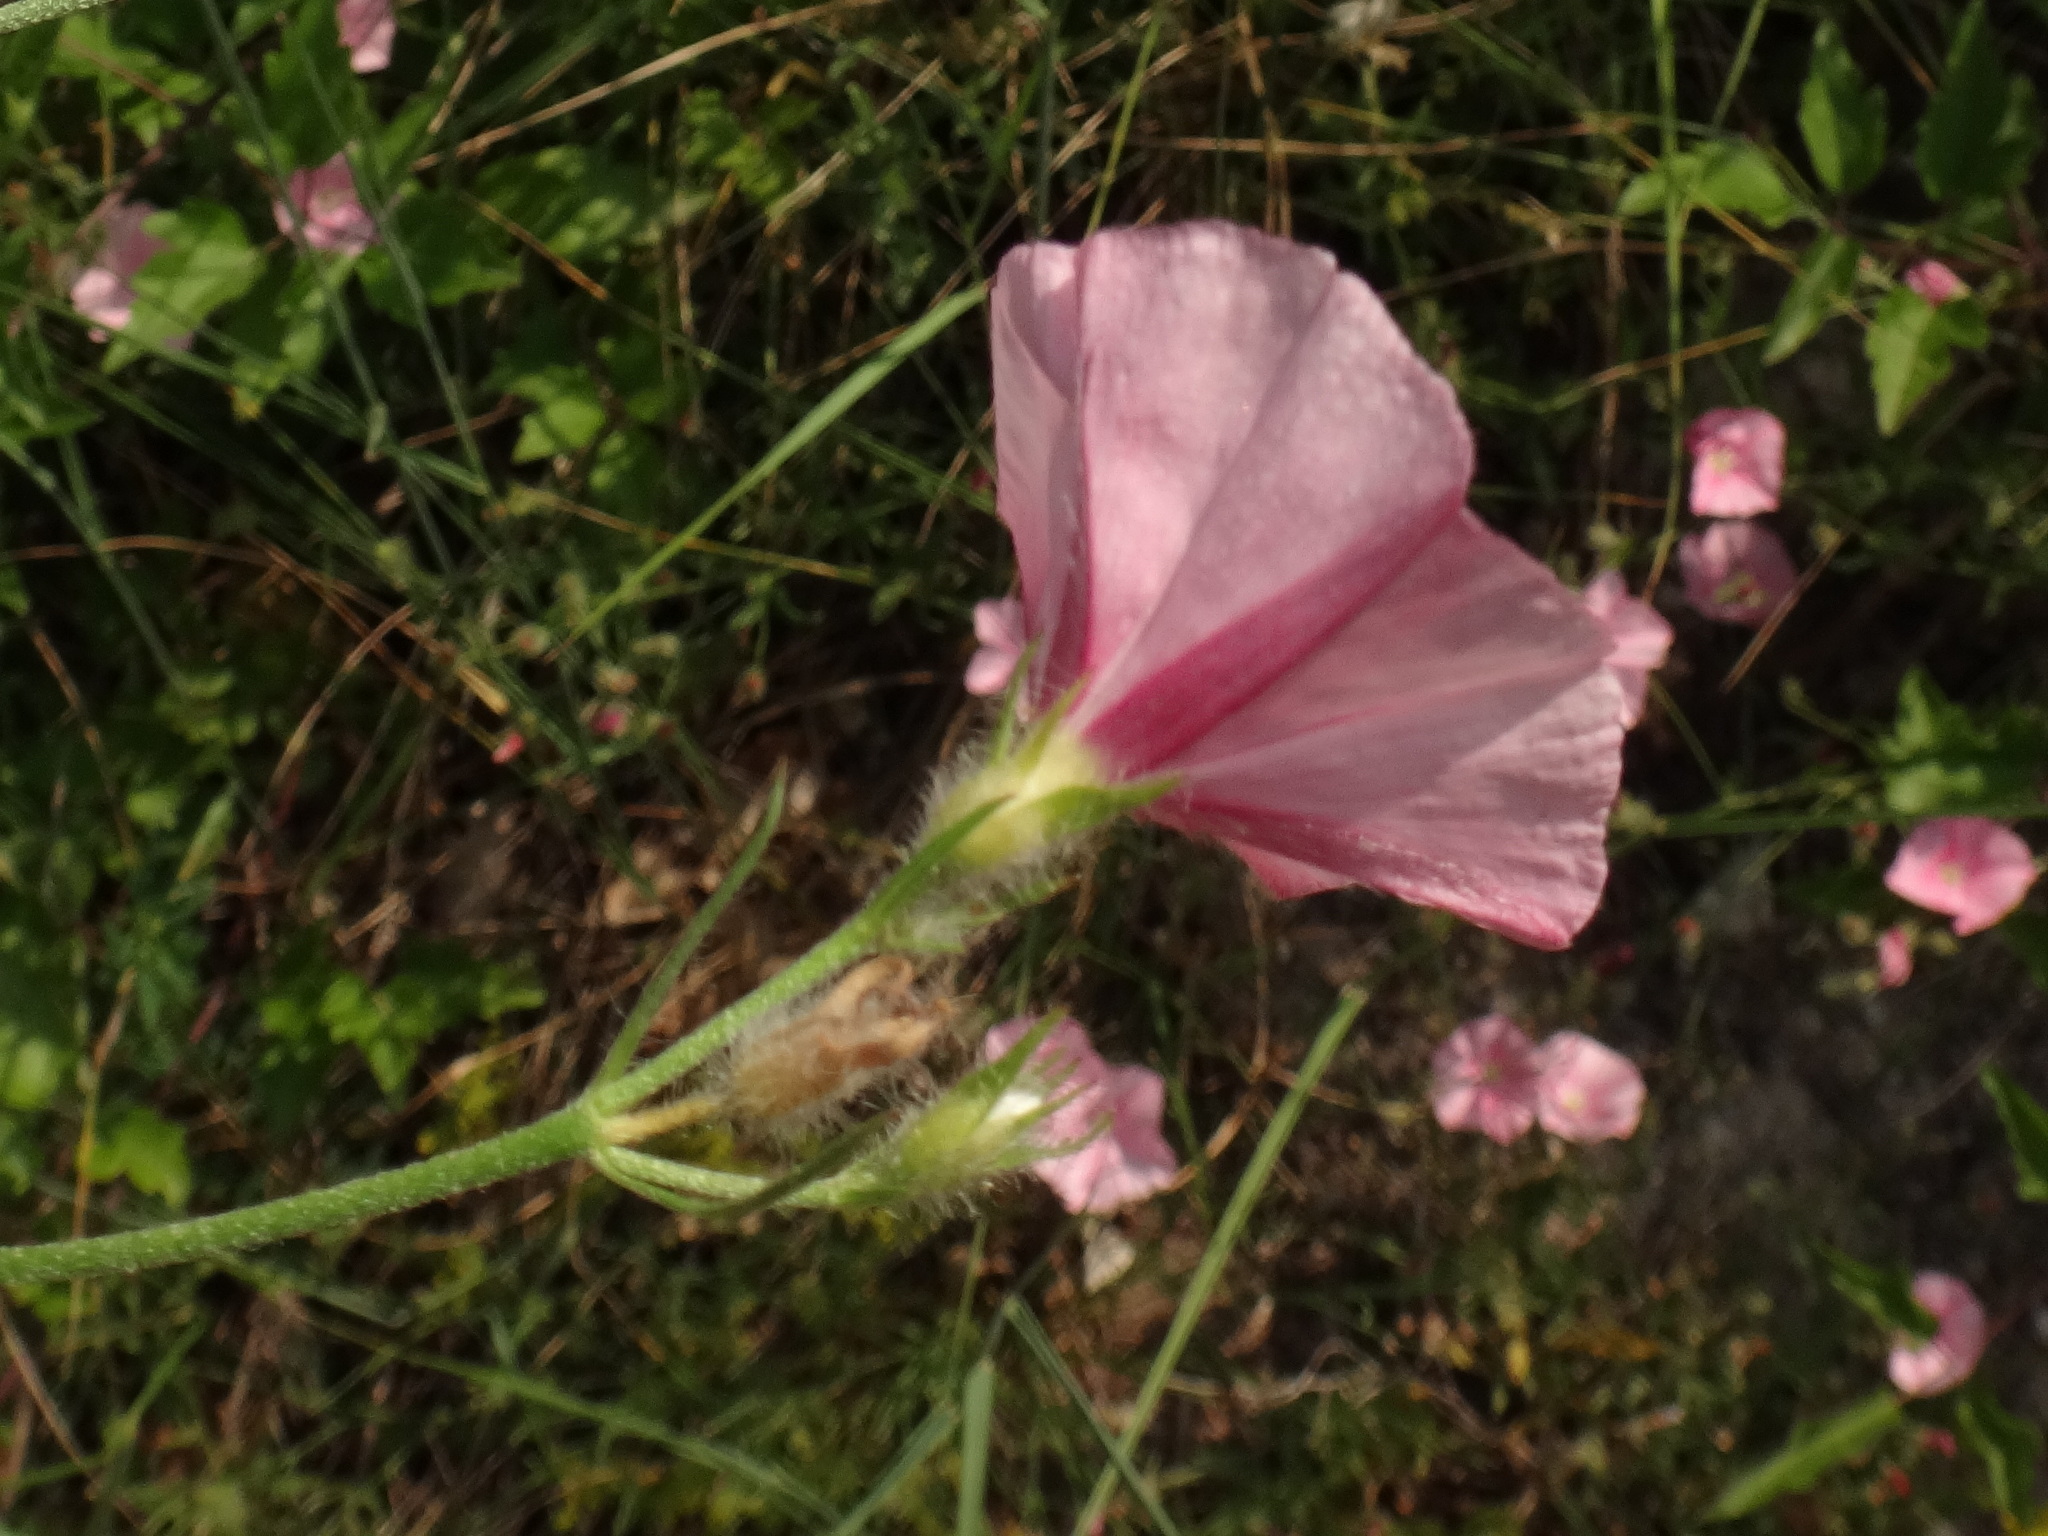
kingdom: Plantae
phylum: Tracheophyta
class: Magnoliopsida
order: Solanales
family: Convolvulaceae
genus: Convolvulus
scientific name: Convolvulus cantabrica
